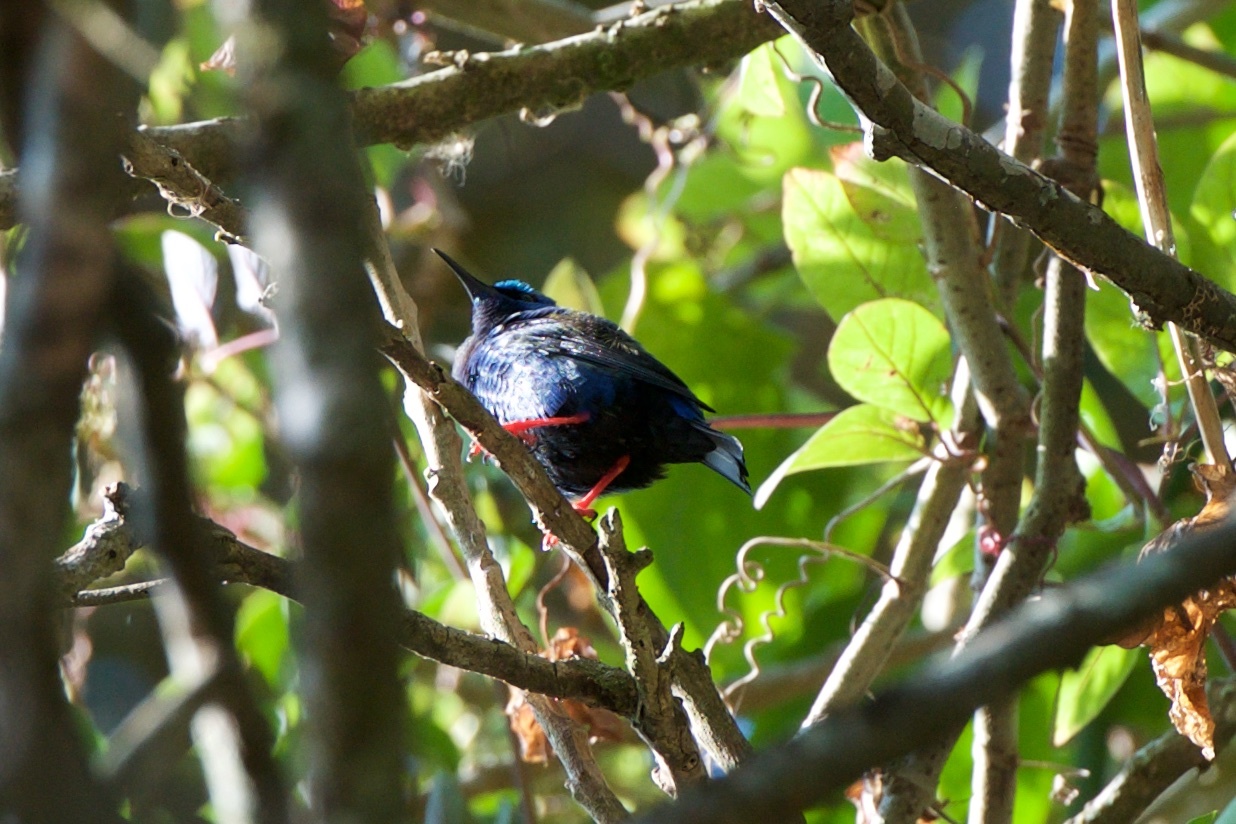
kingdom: Animalia
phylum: Chordata
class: Aves
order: Passeriformes
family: Thraupidae
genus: Cyanerpes
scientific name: Cyanerpes cyaneus
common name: Red-legged honeycreeper
